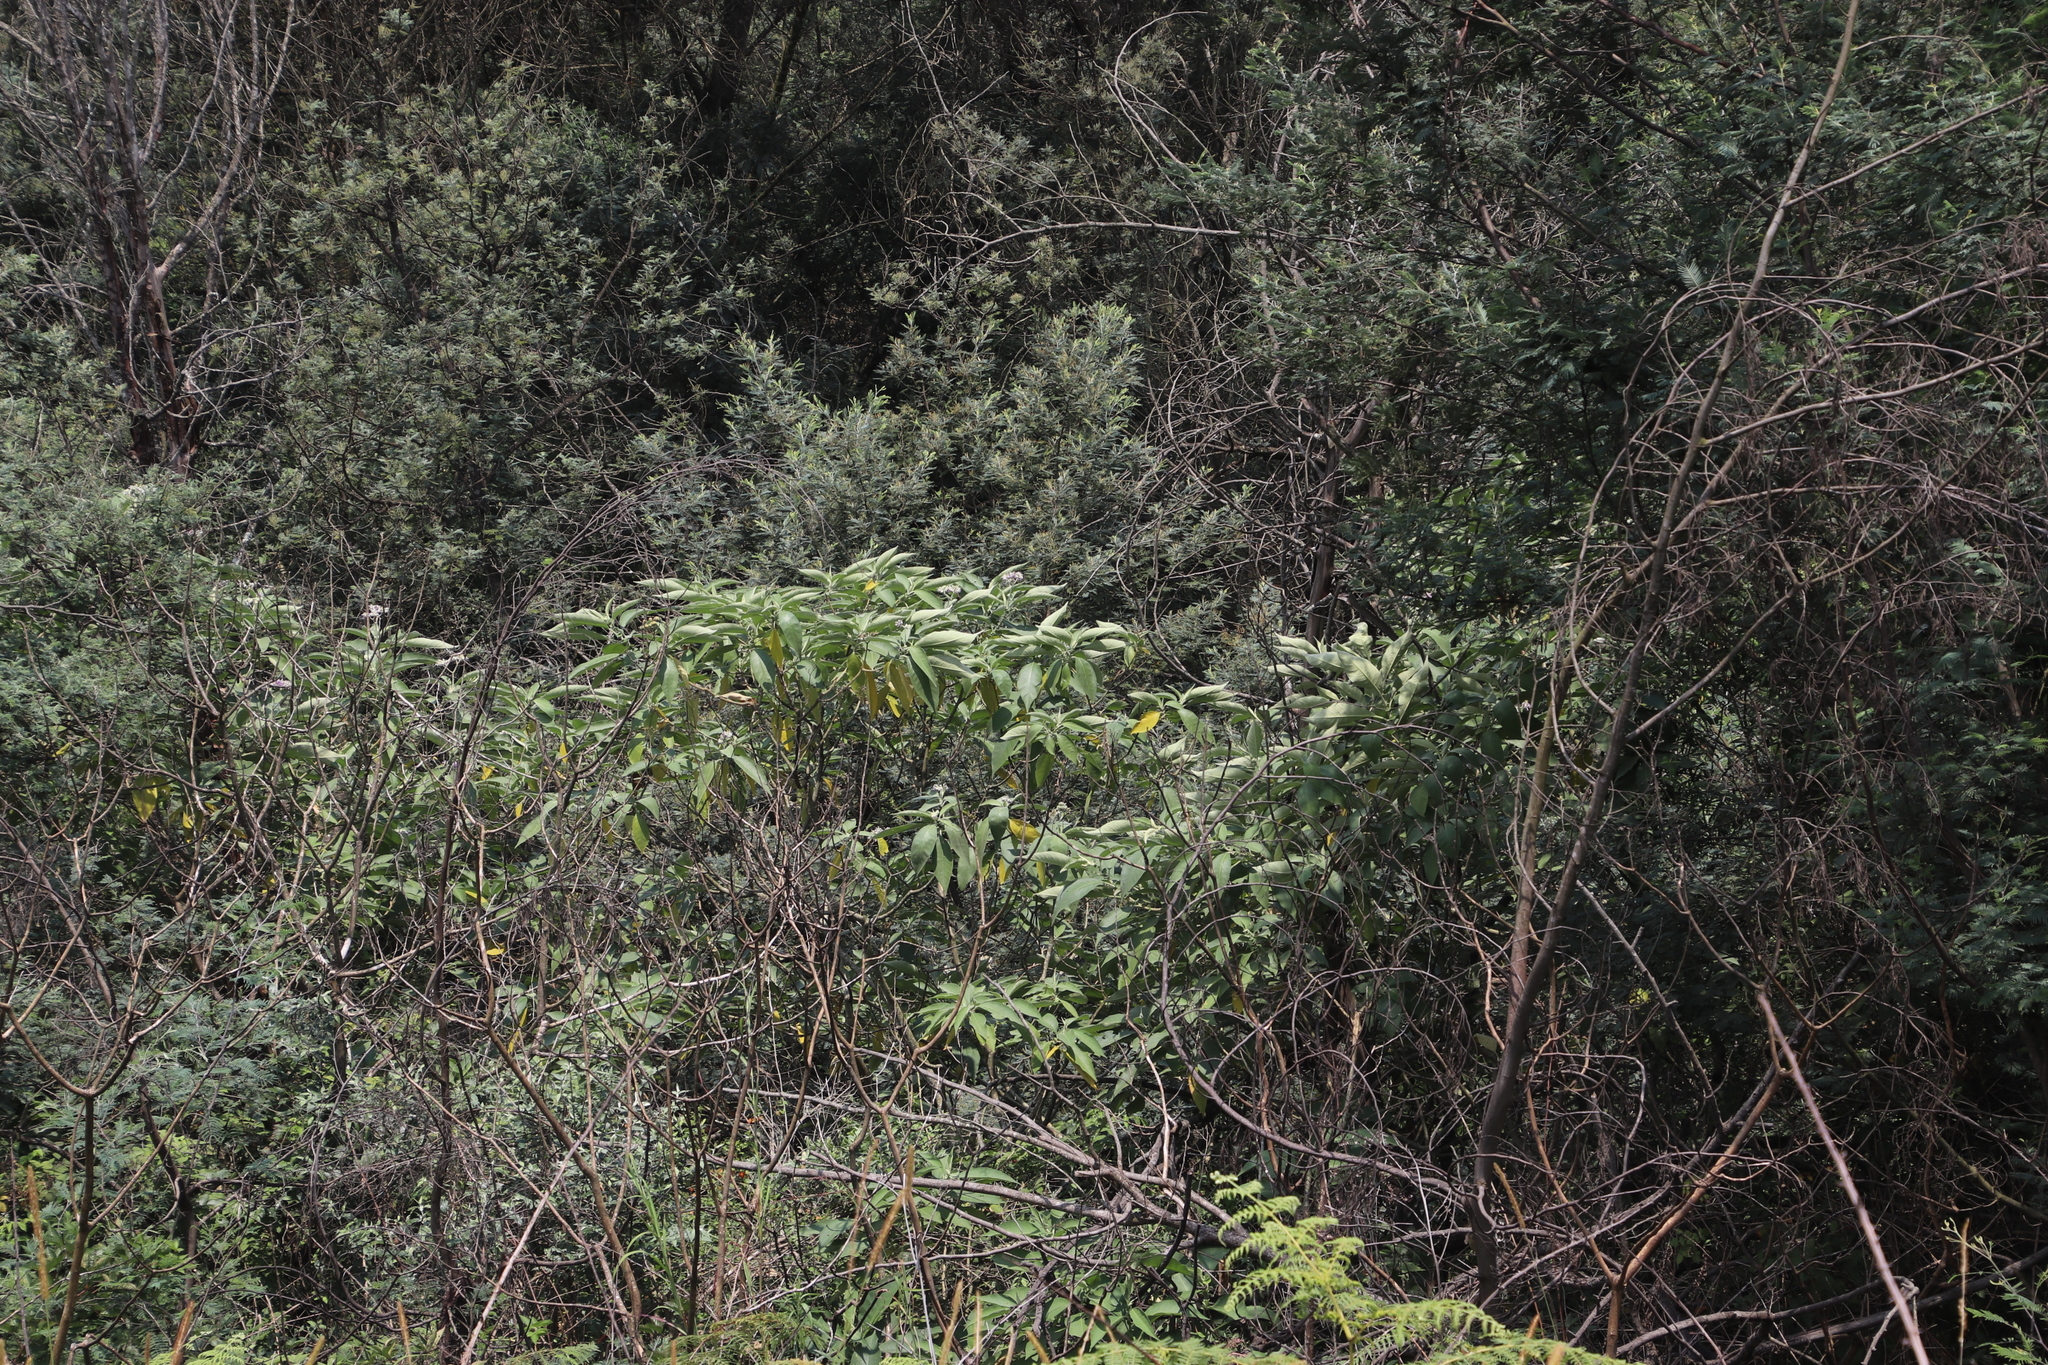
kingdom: Plantae
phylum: Tracheophyta
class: Magnoliopsida
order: Solanales
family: Solanaceae
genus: Solanum
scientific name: Solanum mauritianum
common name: Earleaf nightshade
